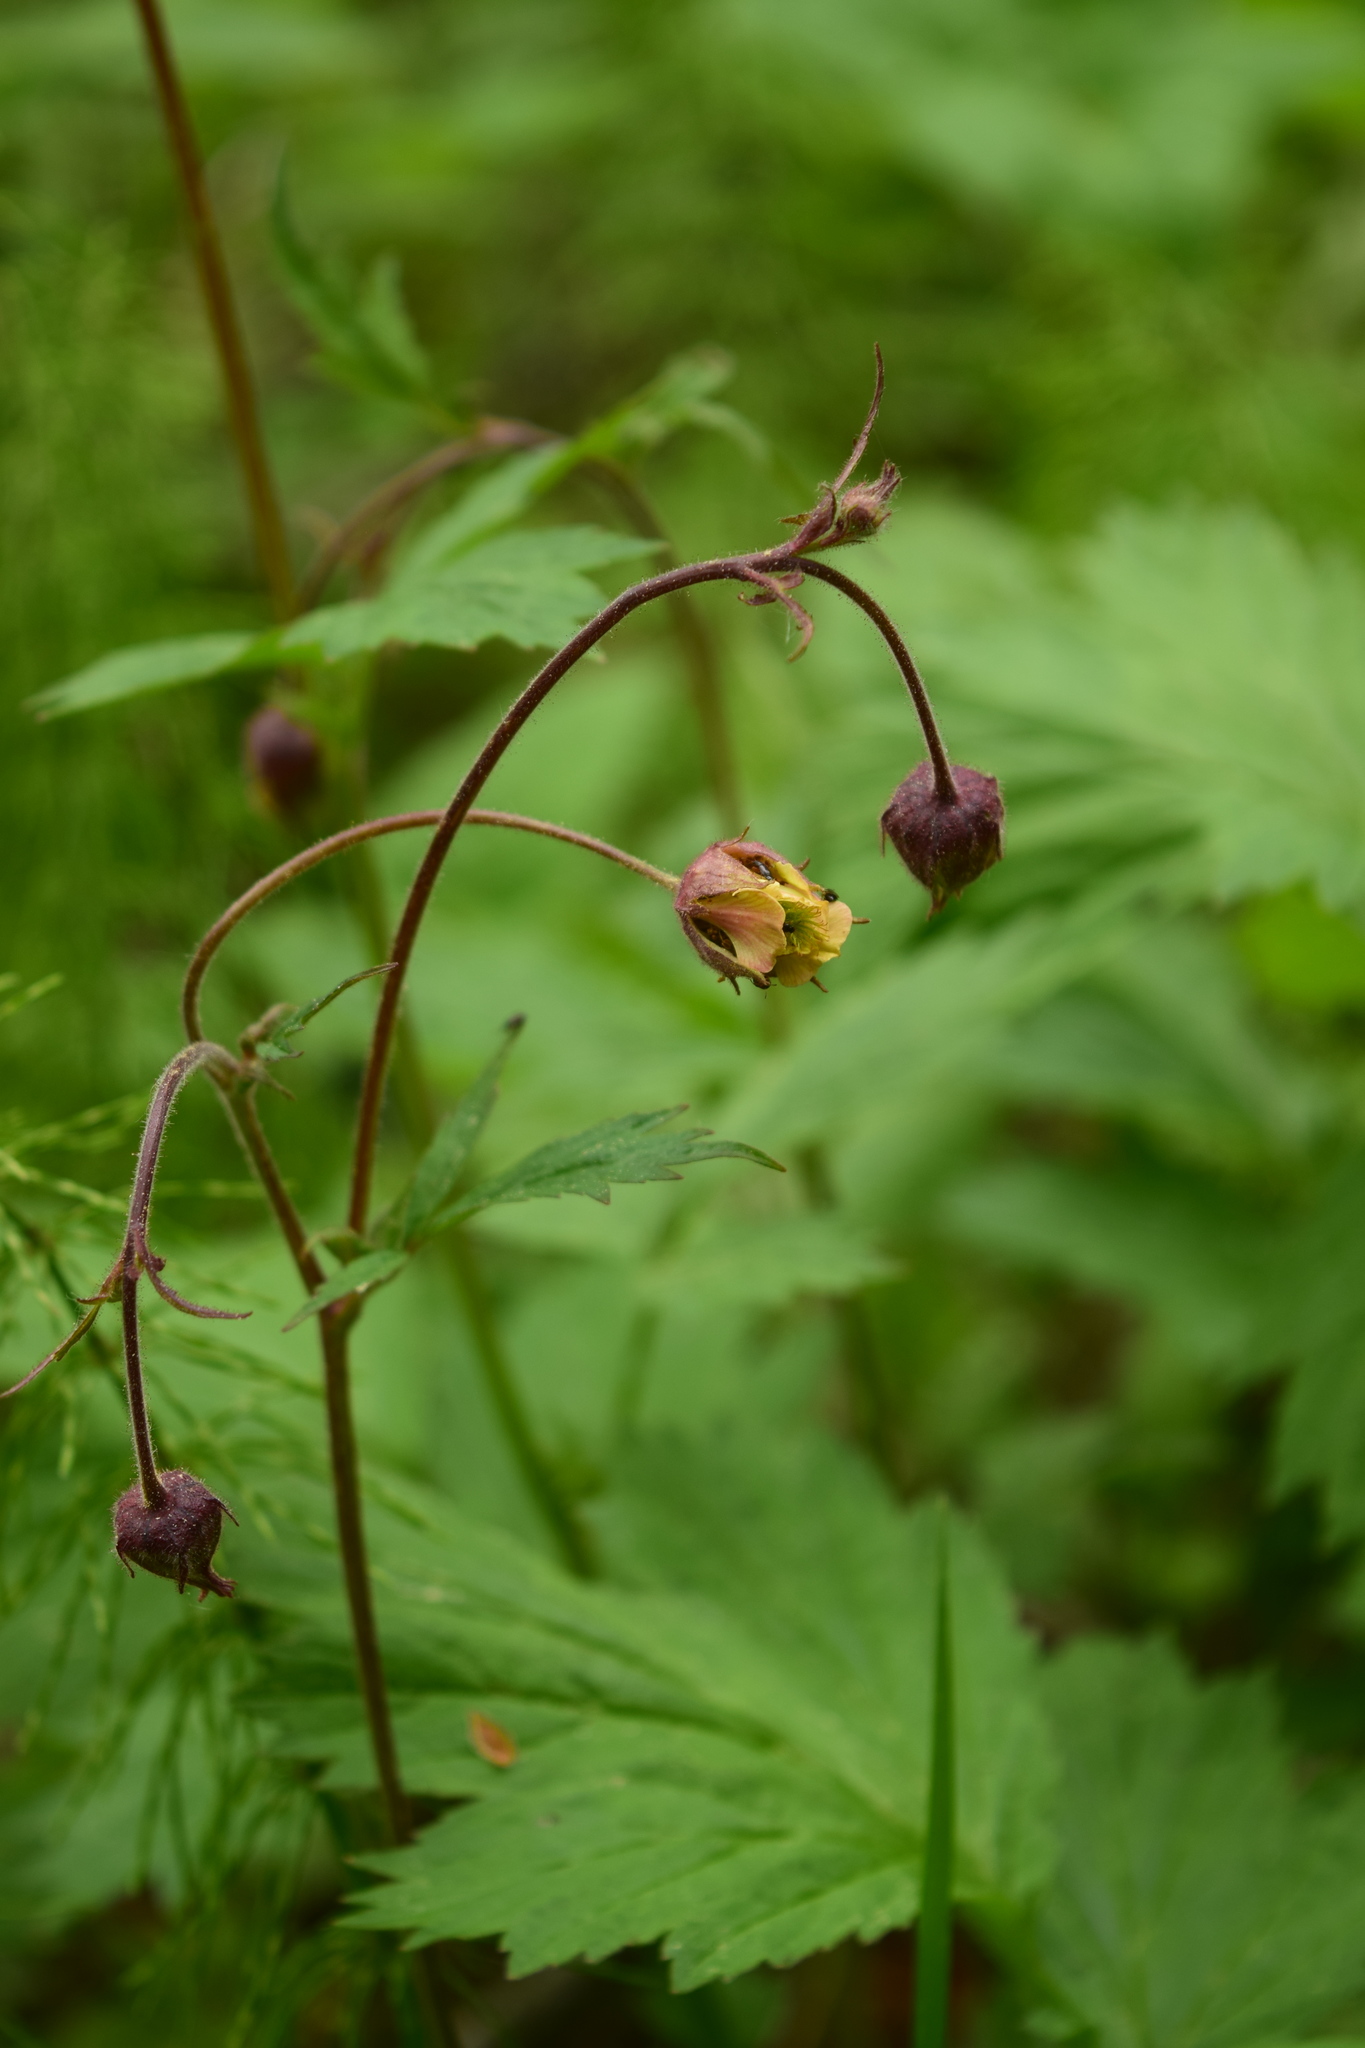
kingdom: Plantae
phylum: Tracheophyta
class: Magnoliopsida
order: Rosales
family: Rosaceae
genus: Geum
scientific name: Geum rivale
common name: Water avens
